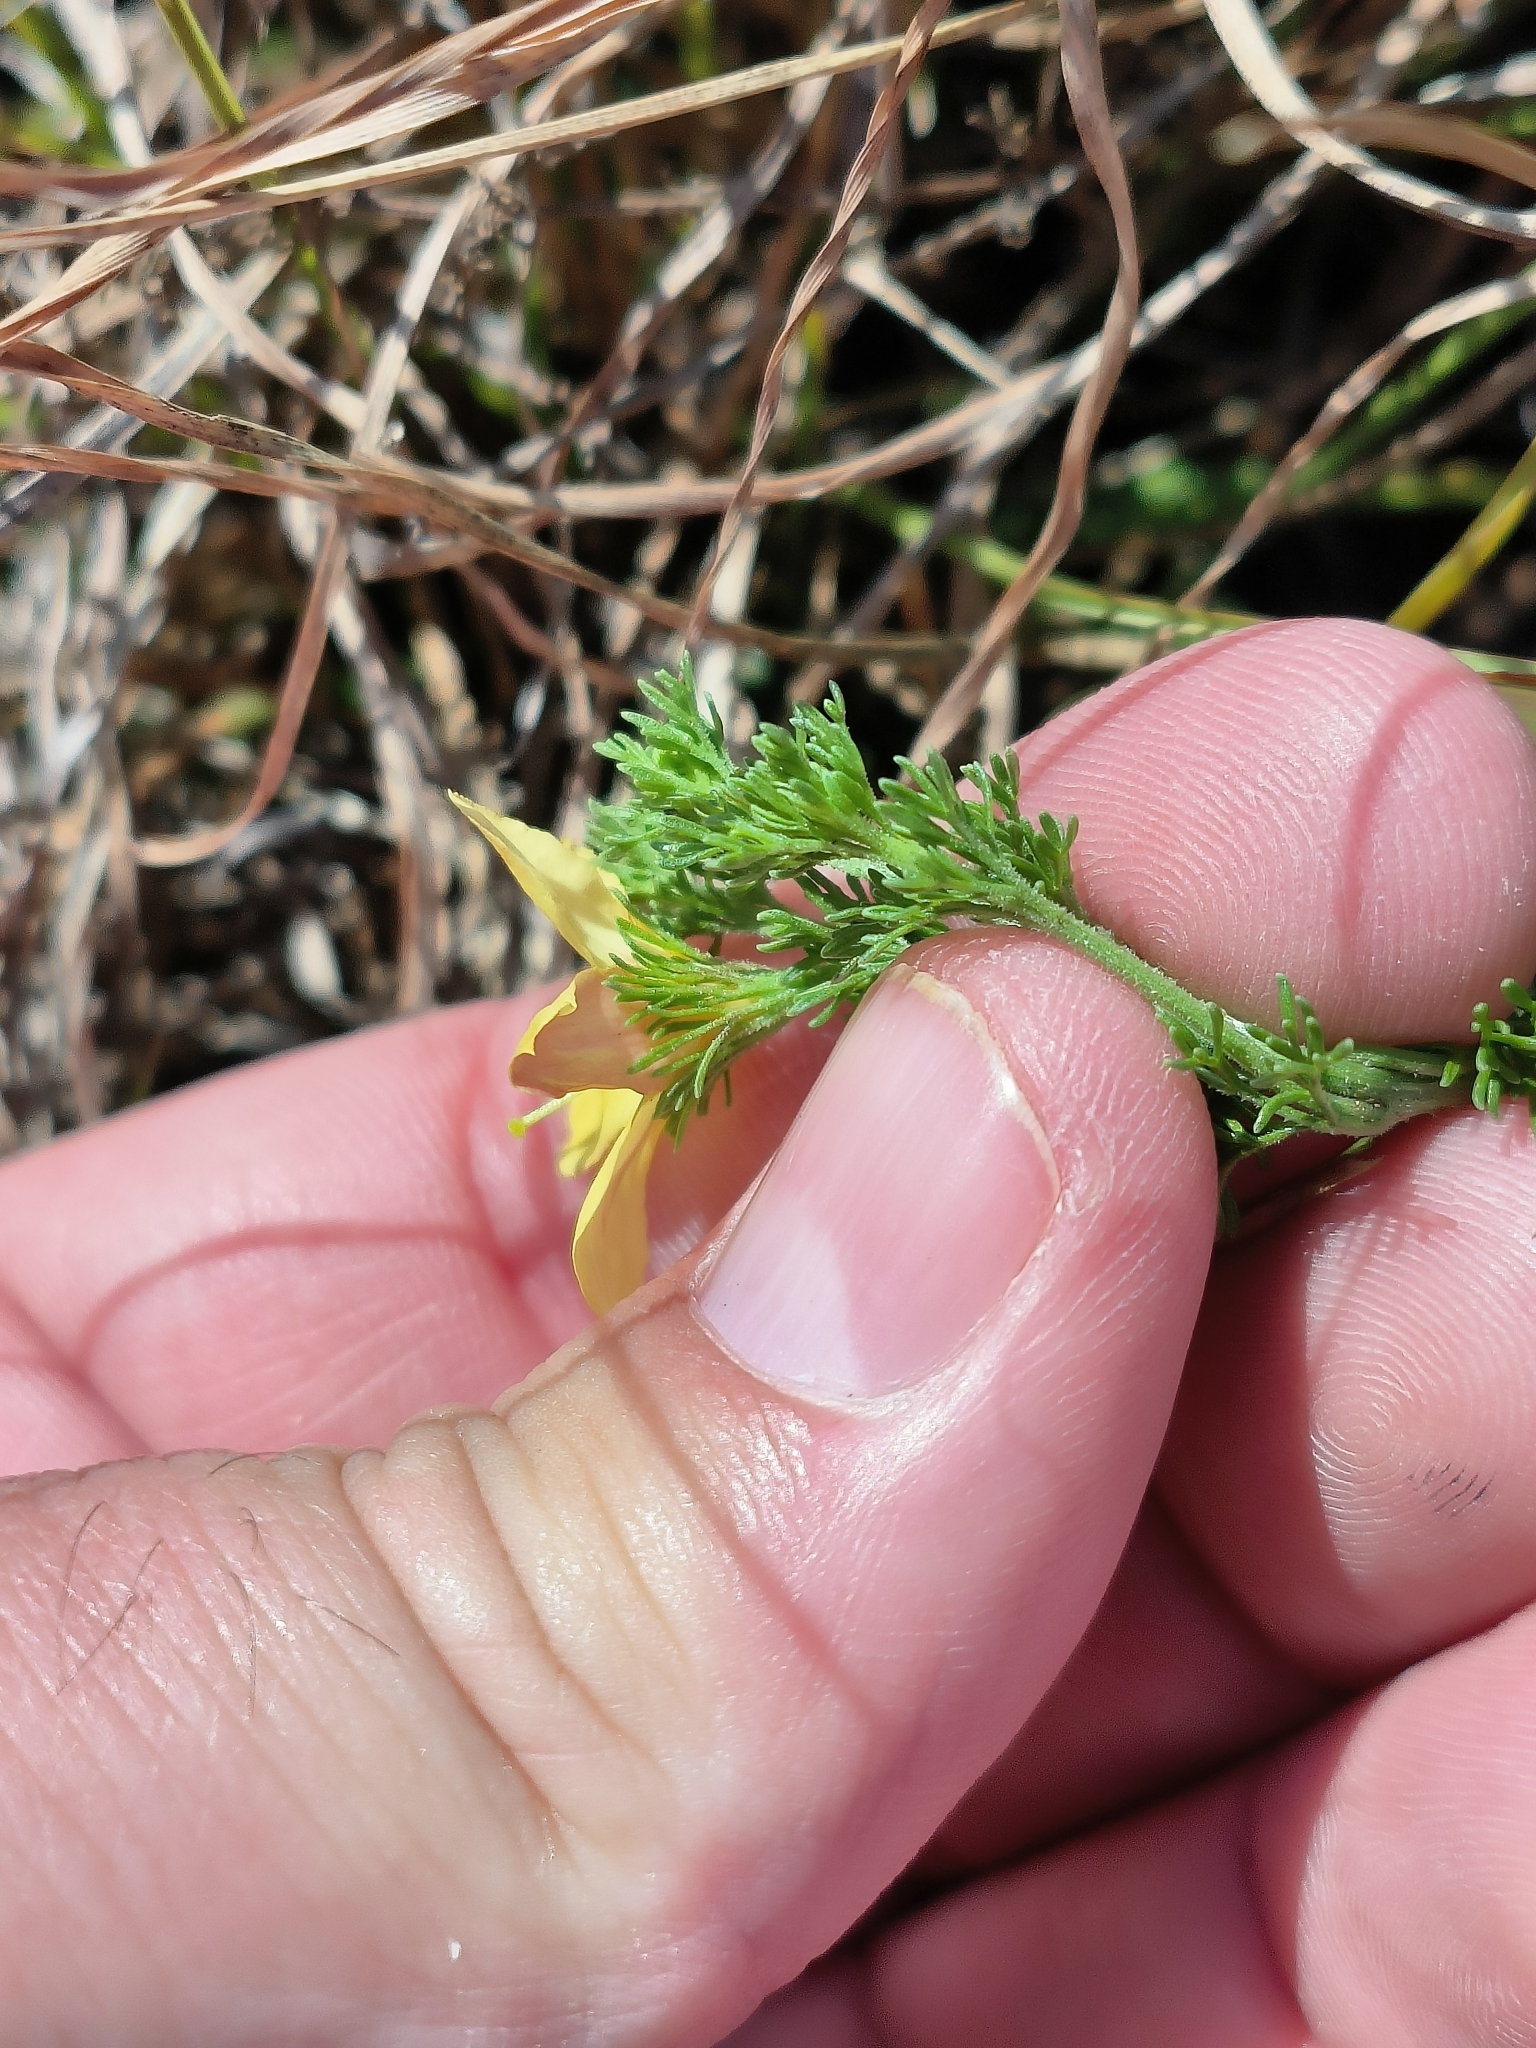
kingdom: Plantae
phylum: Tracheophyta
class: Magnoliopsida
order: Lamiales
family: Oleaceae
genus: Menodora
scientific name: Menodora africana
